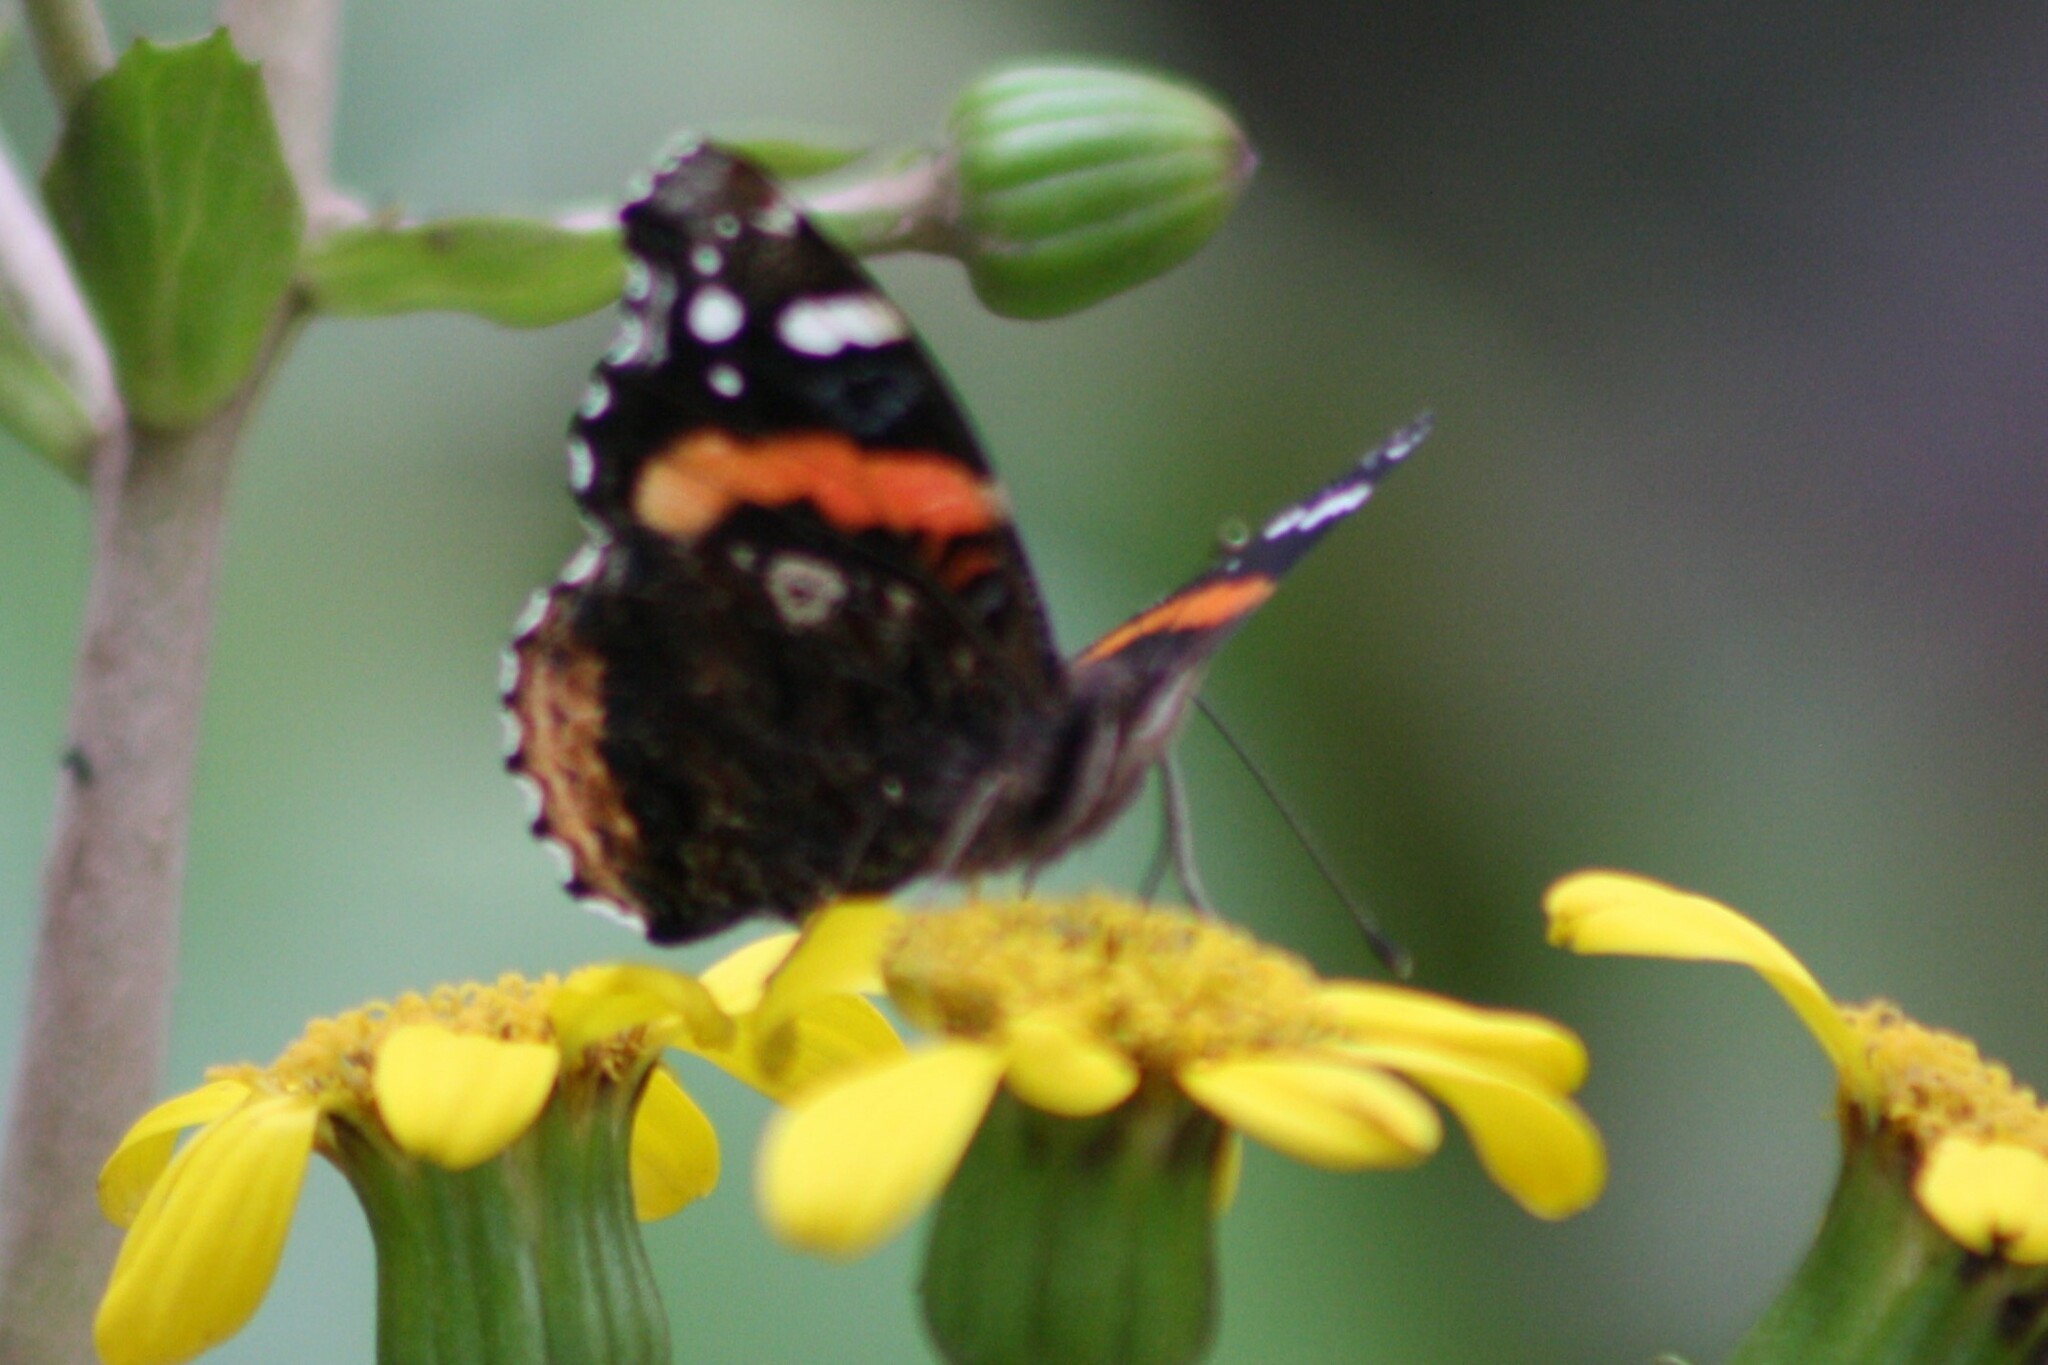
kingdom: Animalia
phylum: Arthropoda
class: Insecta
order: Lepidoptera
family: Nymphalidae
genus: Vanessa
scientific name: Vanessa atalanta
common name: Red admiral
